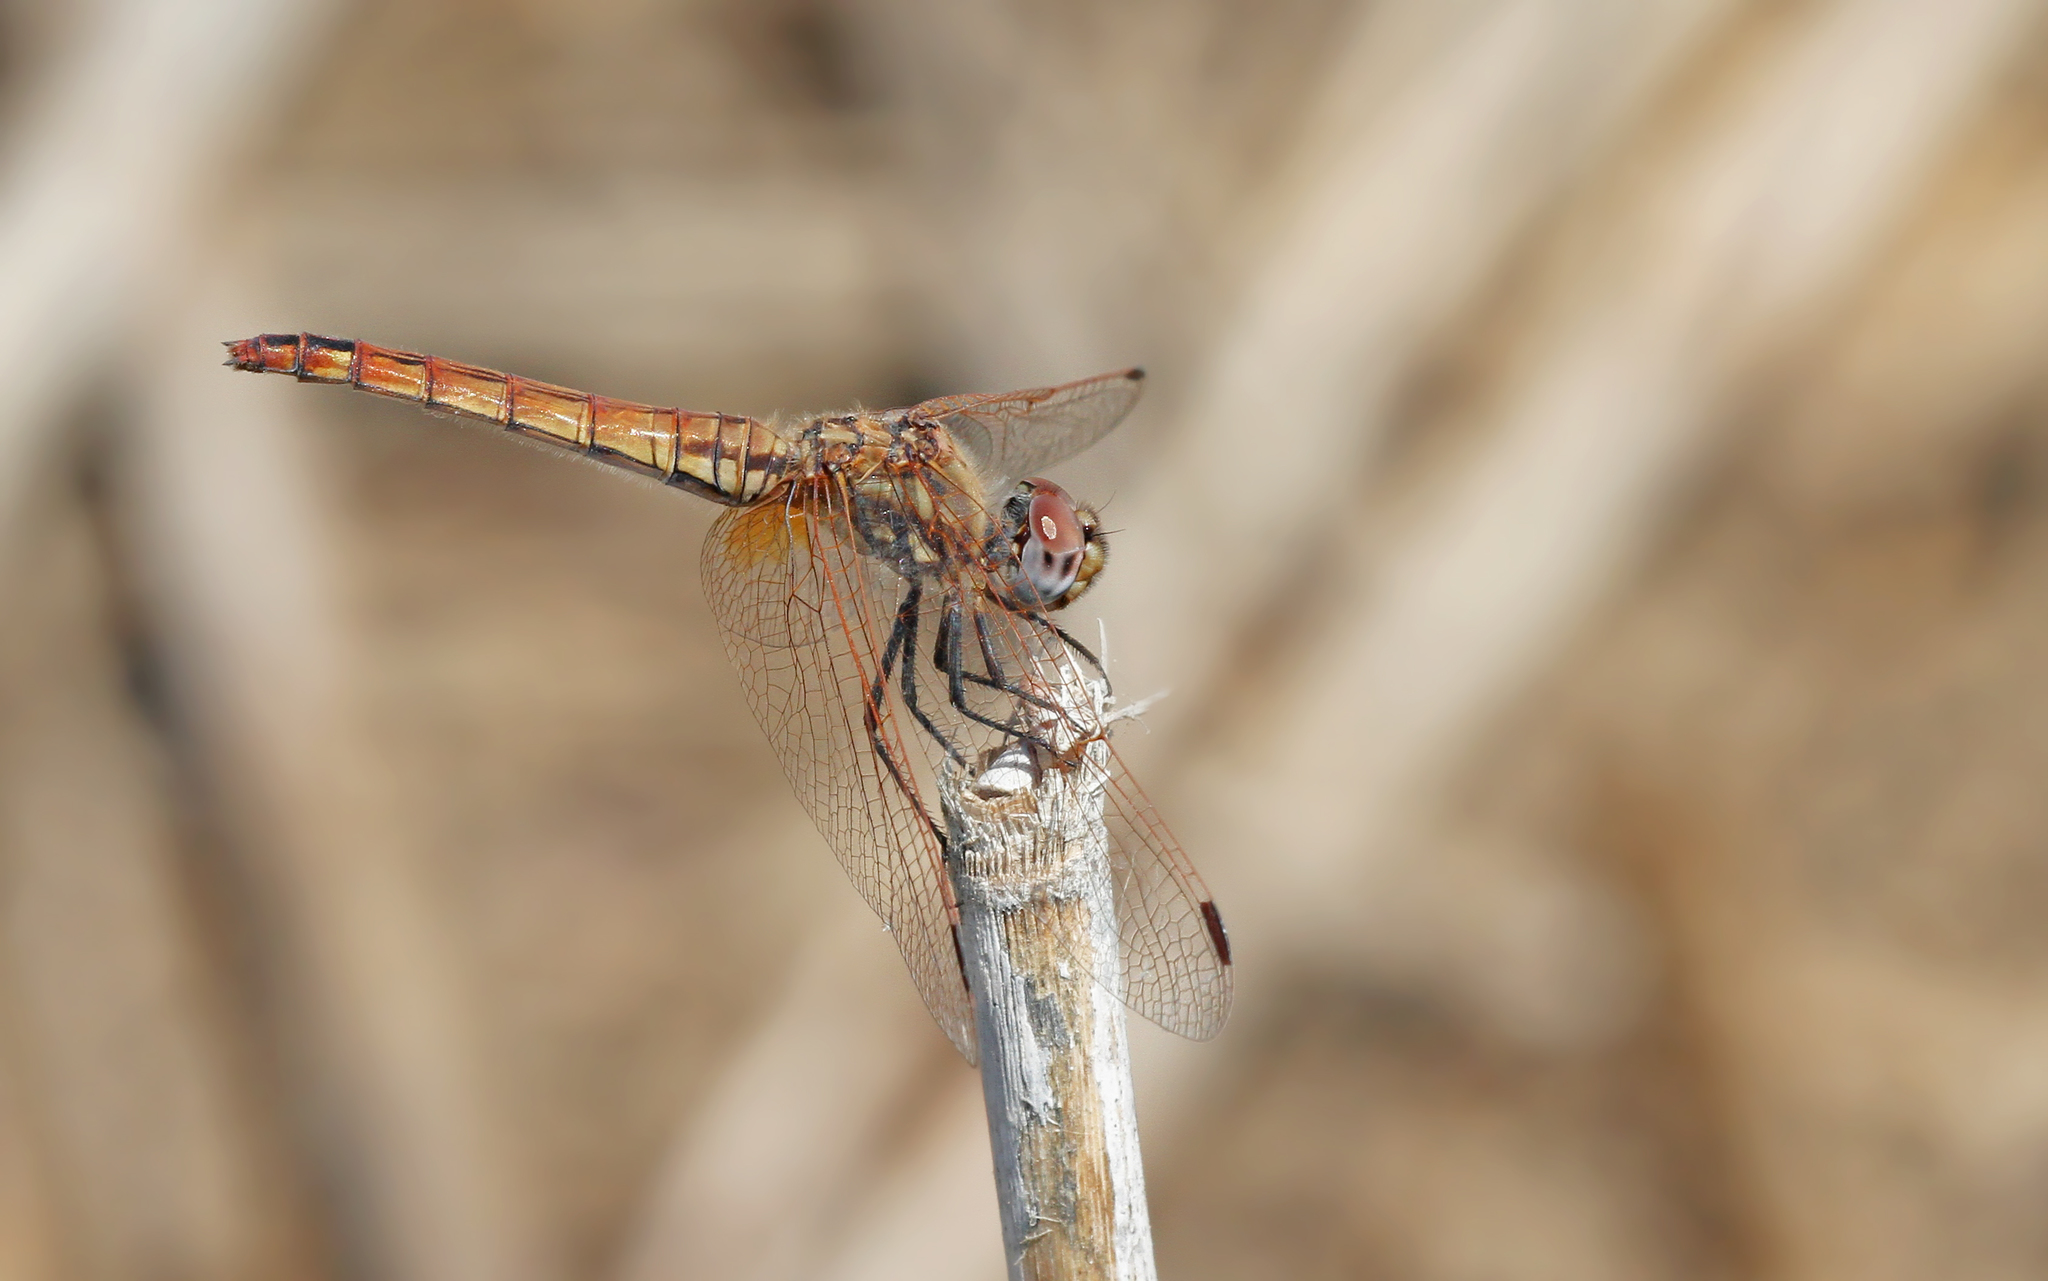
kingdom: Animalia
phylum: Arthropoda
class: Insecta
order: Odonata
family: Libellulidae
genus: Trithemis
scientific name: Trithemis annulata
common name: Violet dropwing
